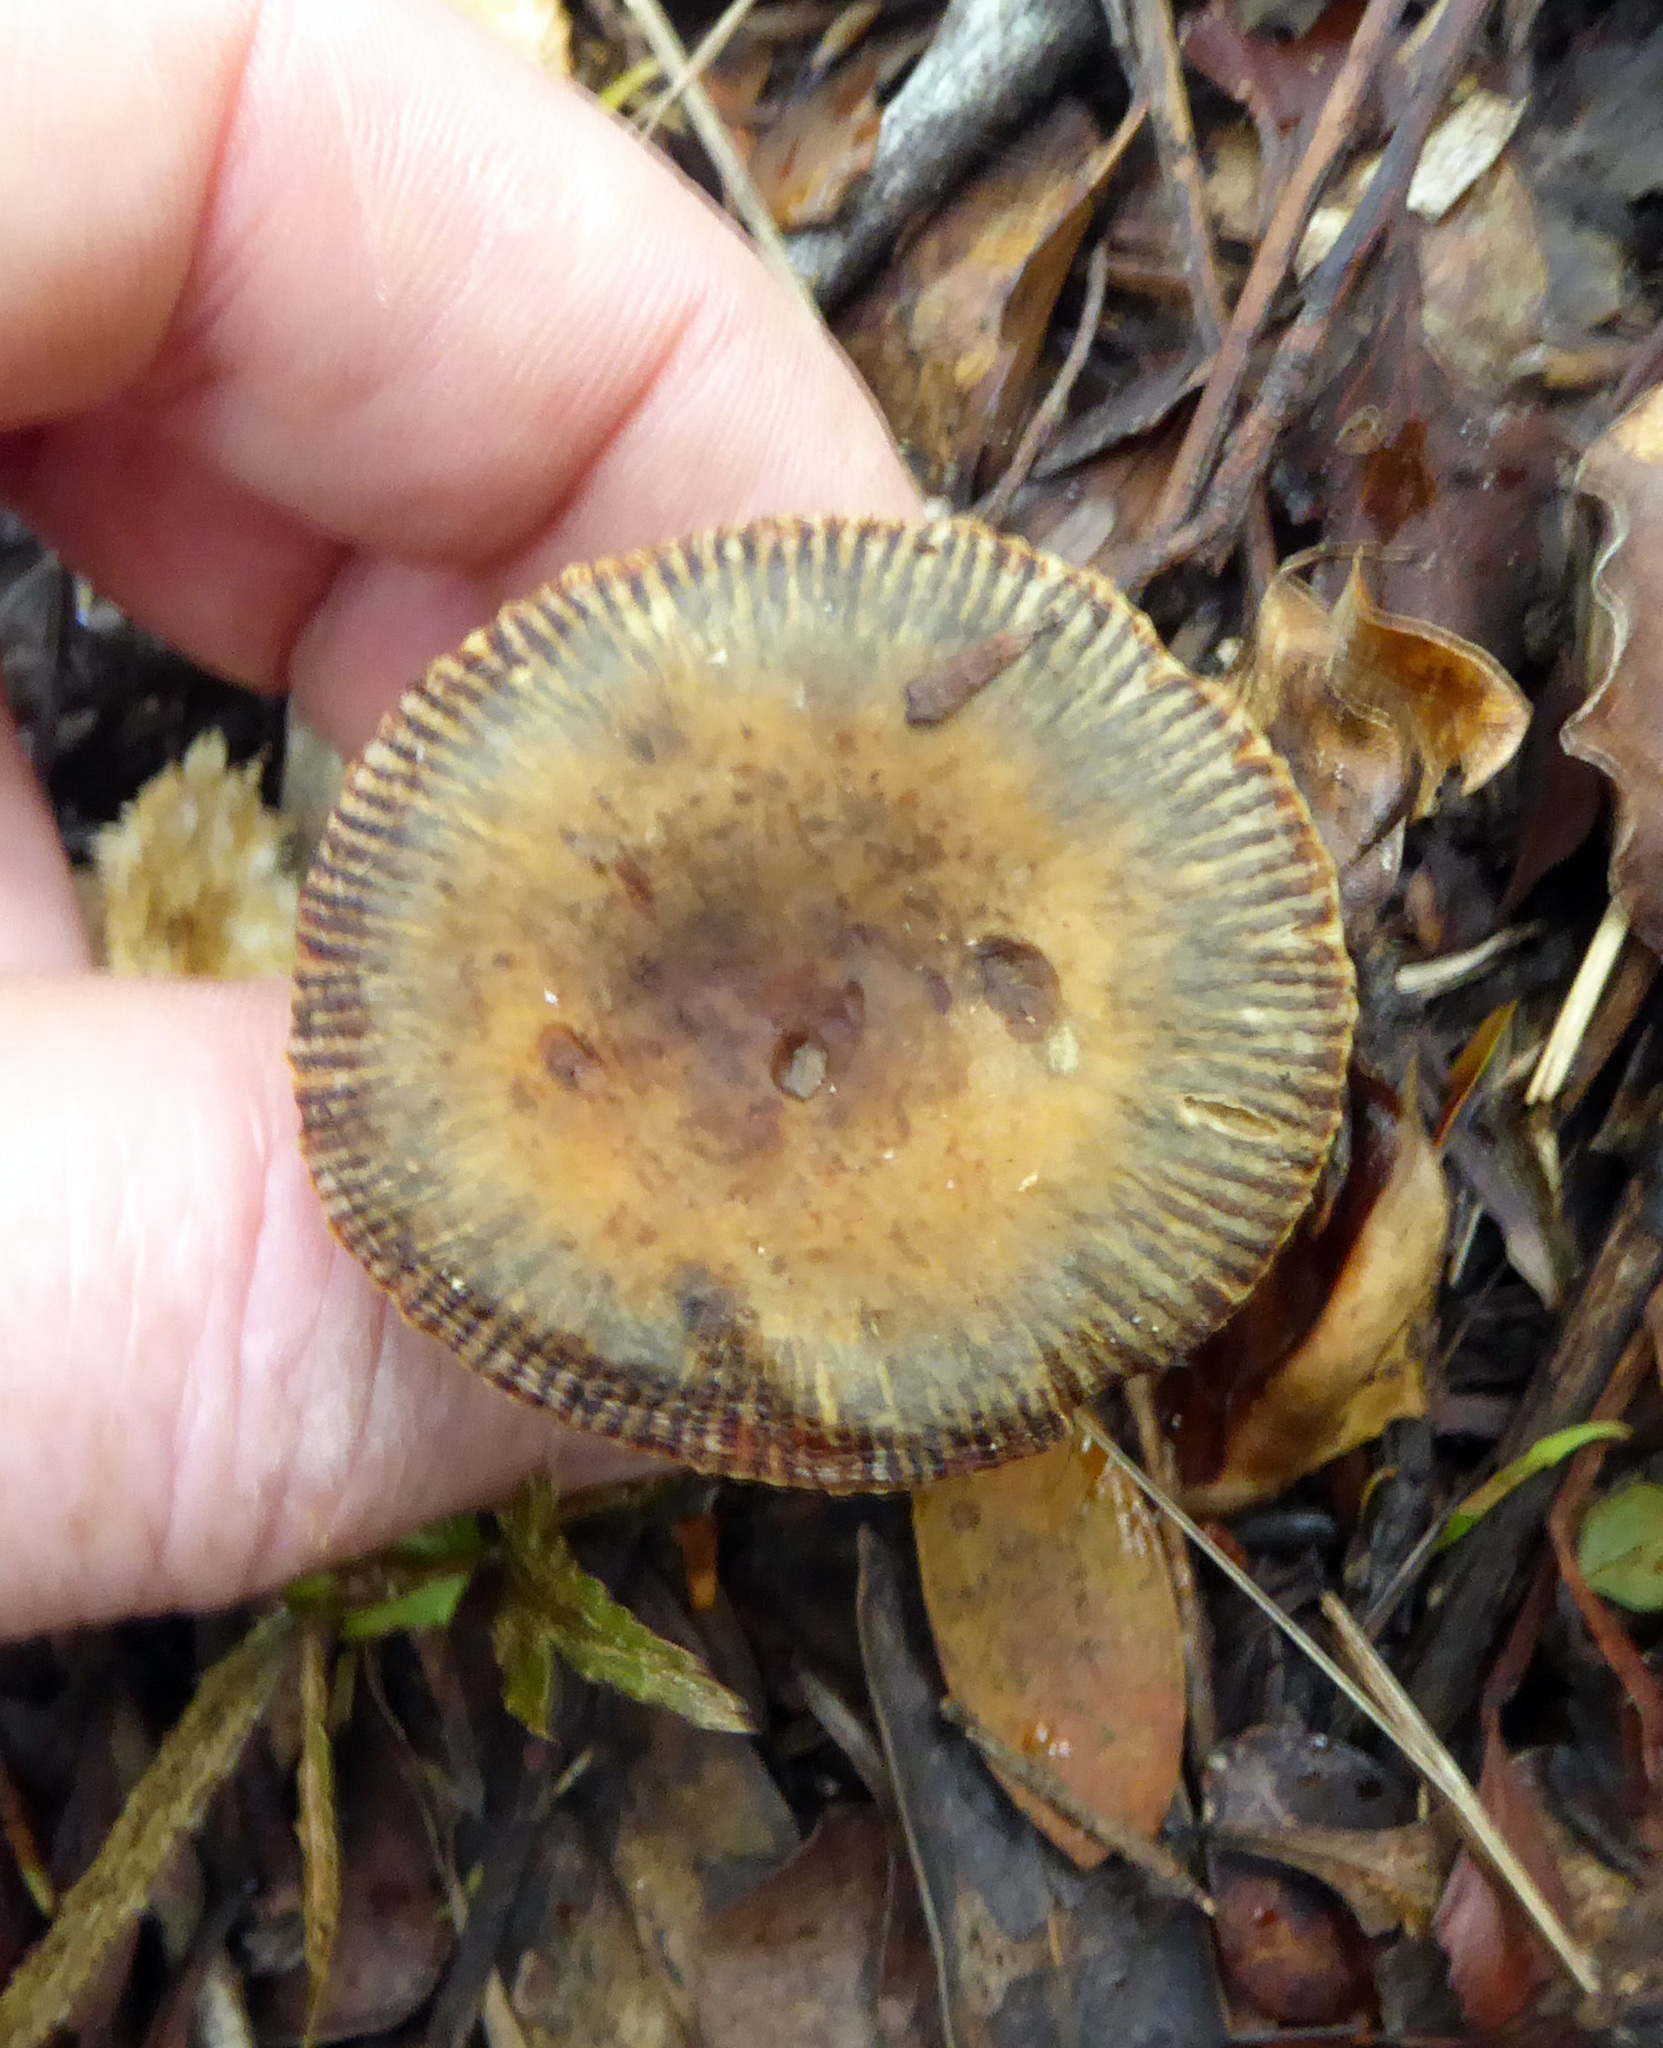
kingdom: Fungi
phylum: Basidiomycota
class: Agaricomycetes
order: Russulales
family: Russulaceae
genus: Russula
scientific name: Russula acrolamellata
